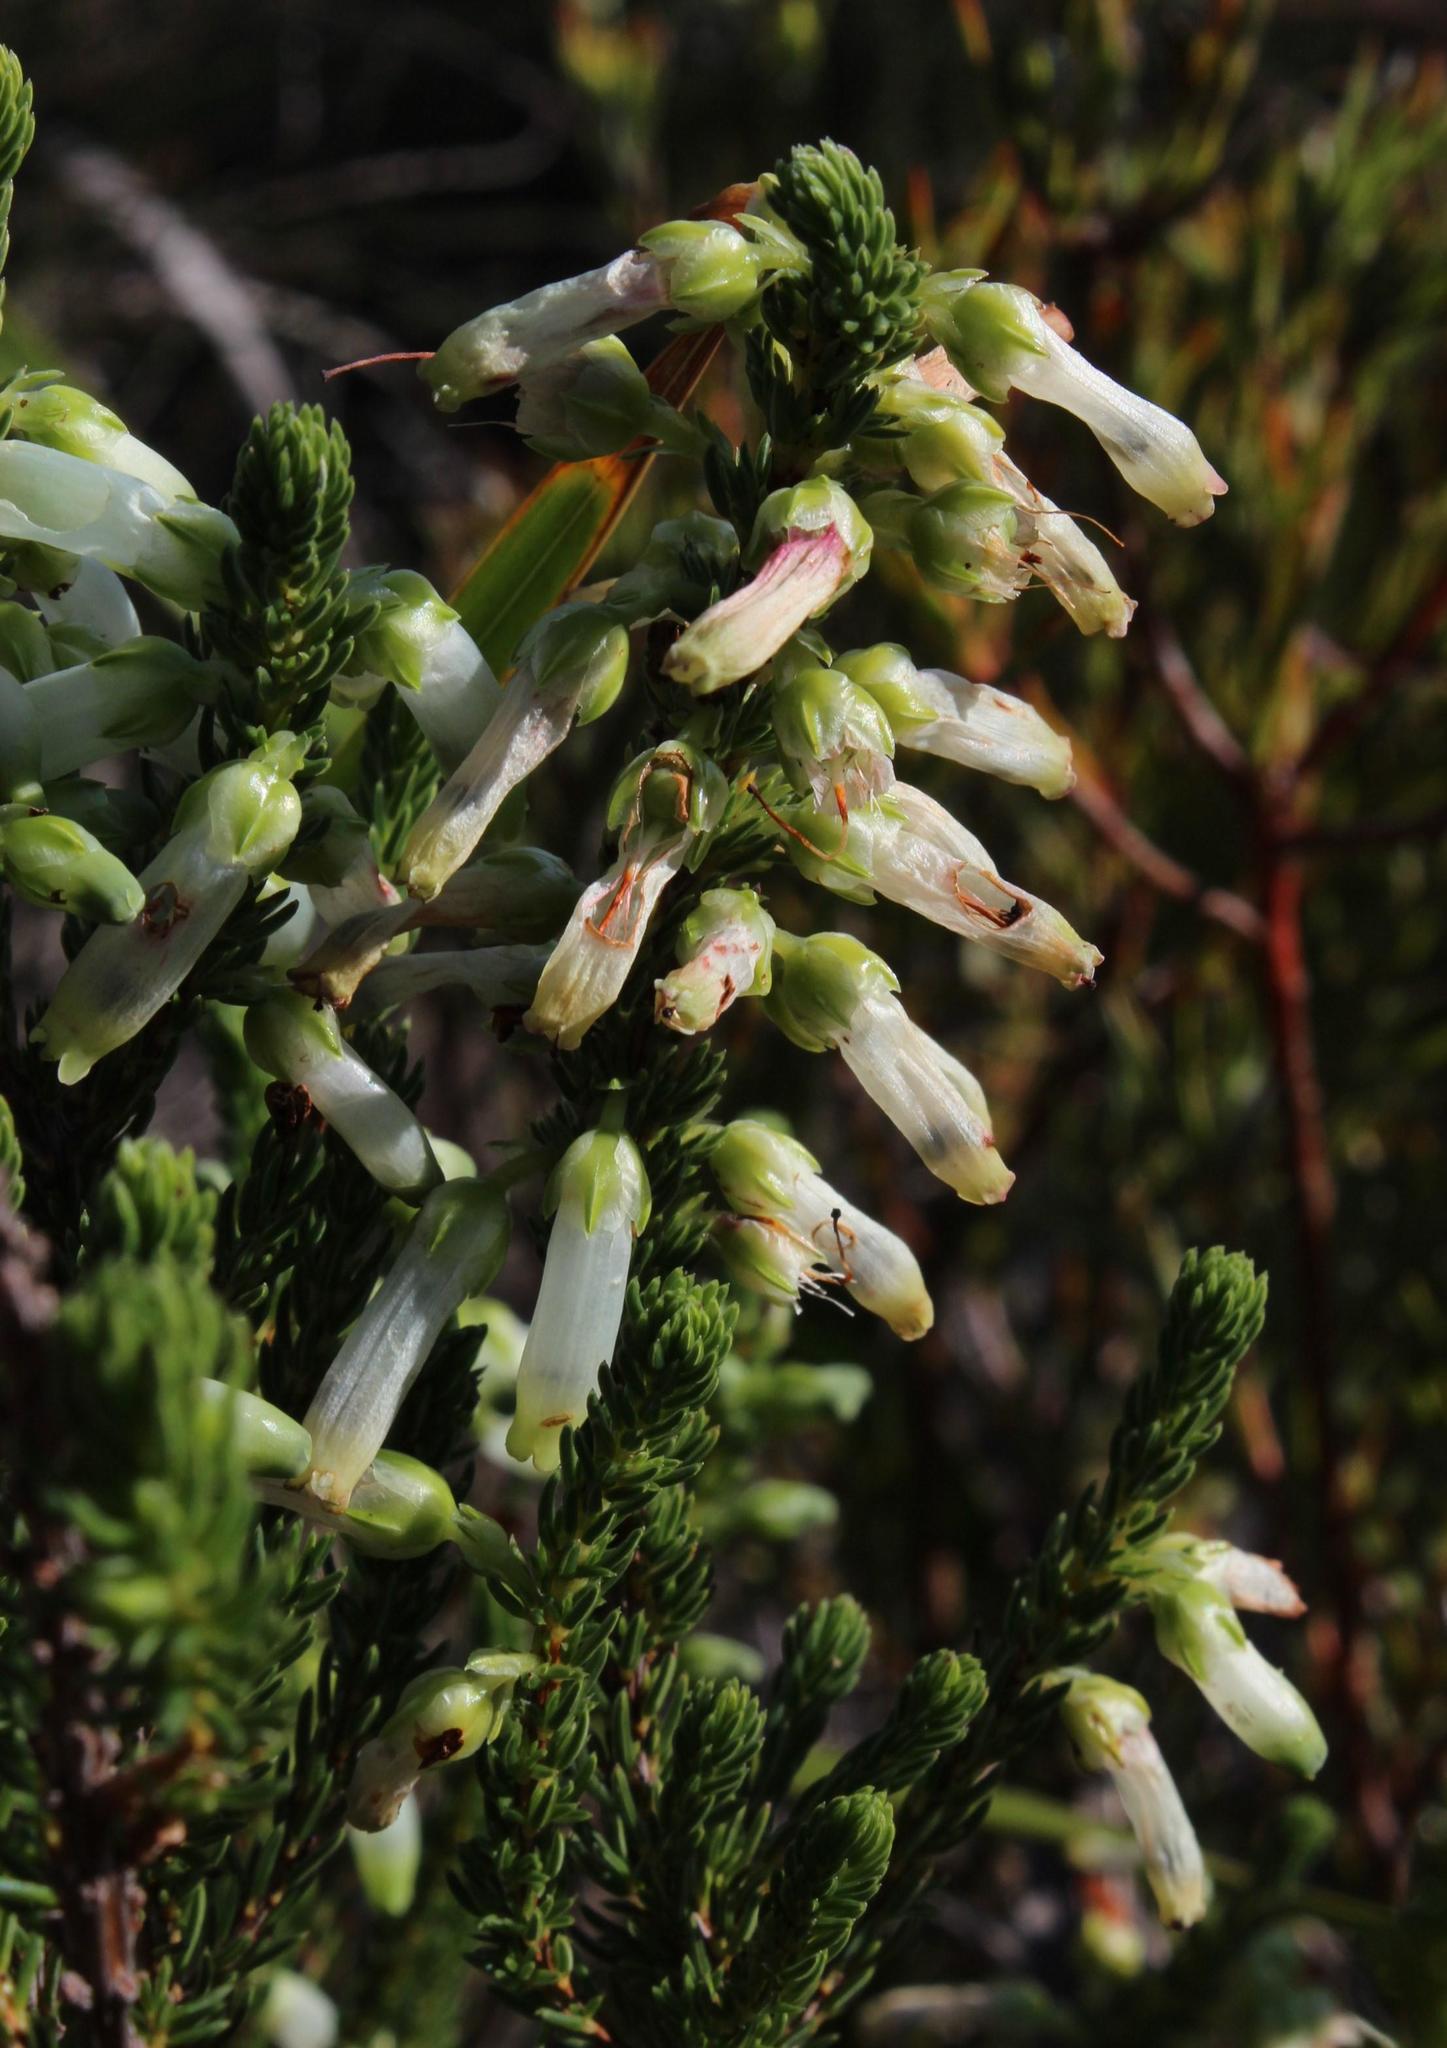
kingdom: Plantae
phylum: Tracheophyta
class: Magnoliopsida
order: Ericales
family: Ericaceae
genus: Erica
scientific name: Erica mammosa
